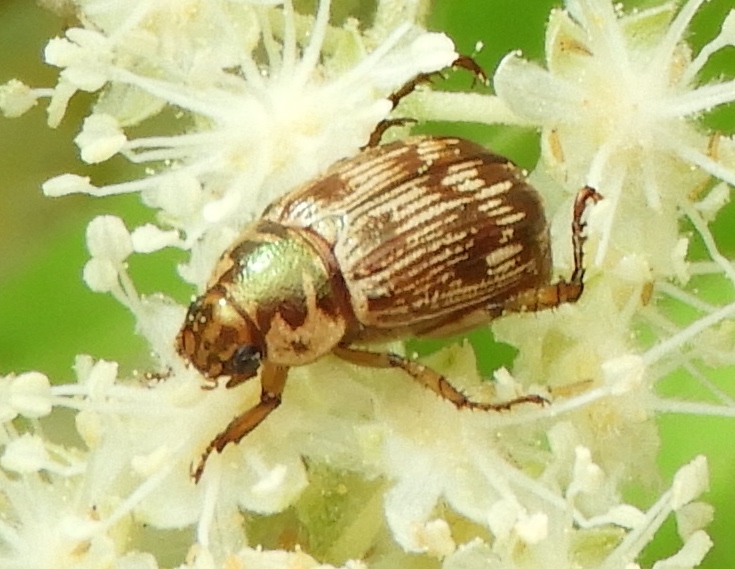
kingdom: Animalia
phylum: Arthropoda
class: Insecta
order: Coleoptera
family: Scarabaeidae
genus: Paranomala
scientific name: Paranomala histrionella
